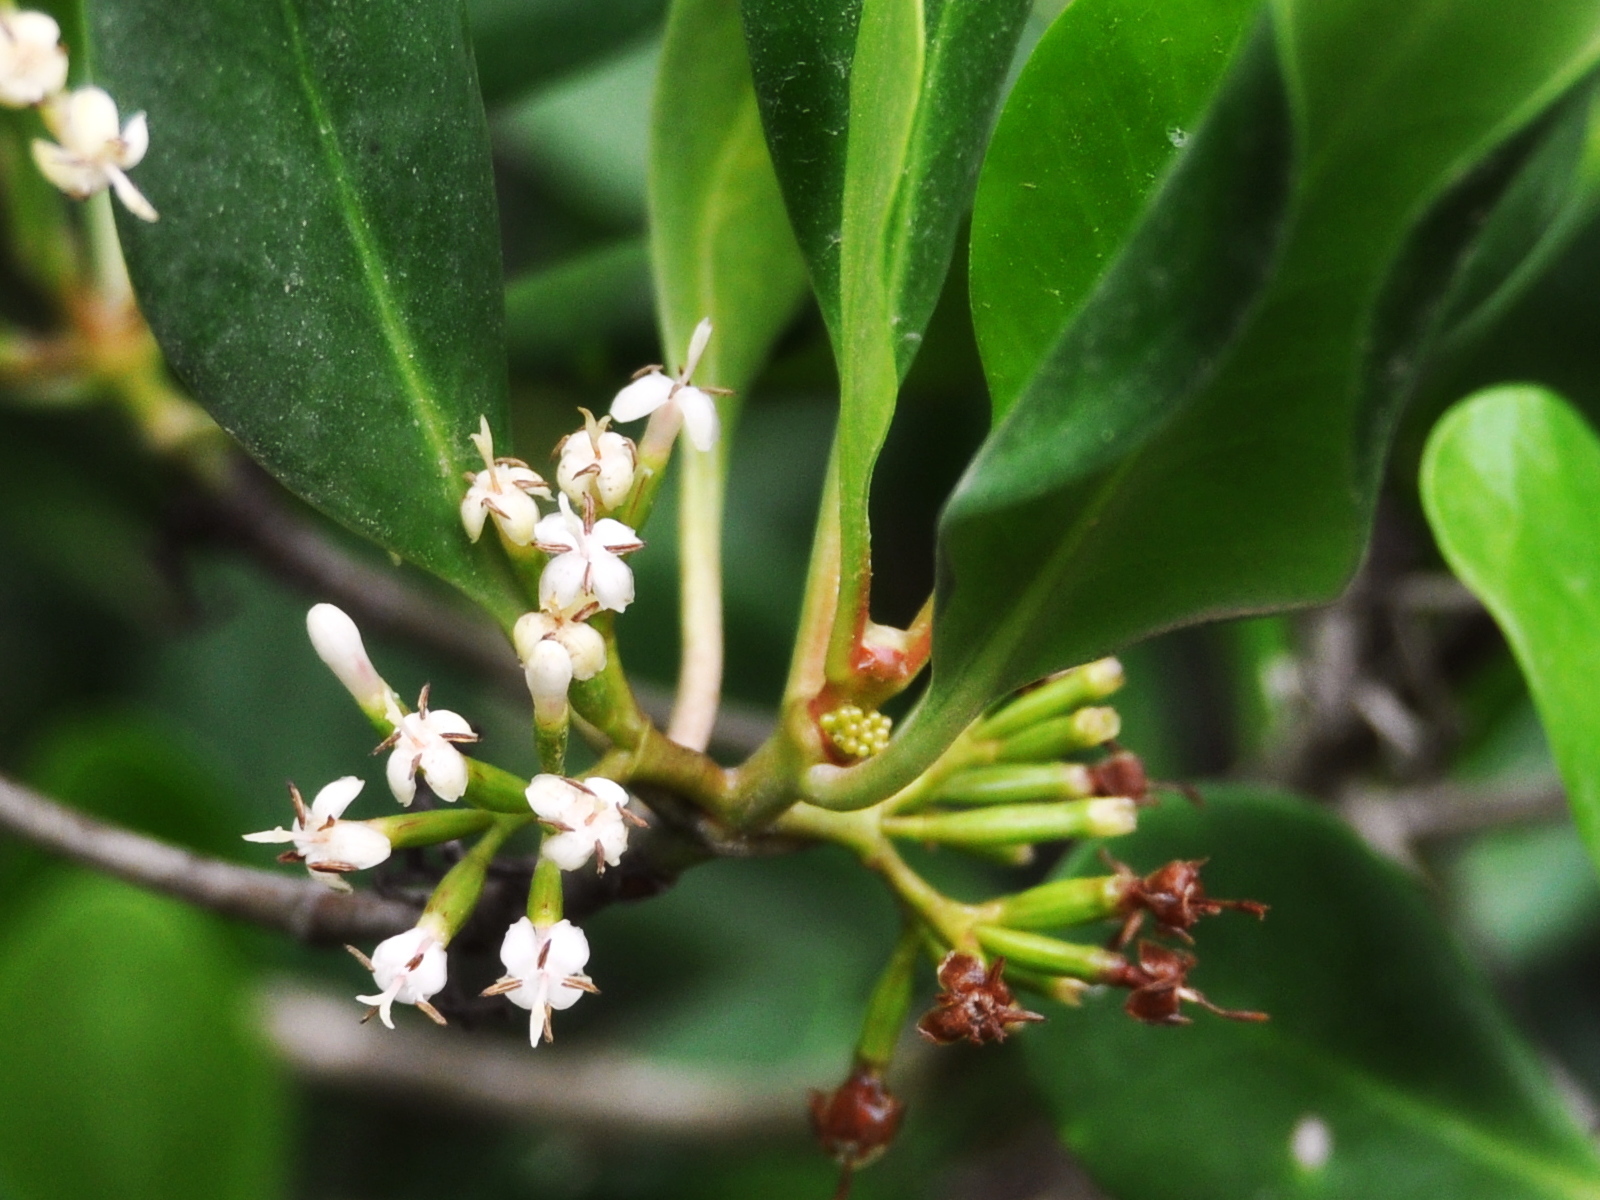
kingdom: Plantae
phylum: Tracheophyta
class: Magnoliopsida
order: Gentianales
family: Rubiaceae
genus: Scyphiphora
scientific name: Scyphiphora hydrophylacea
